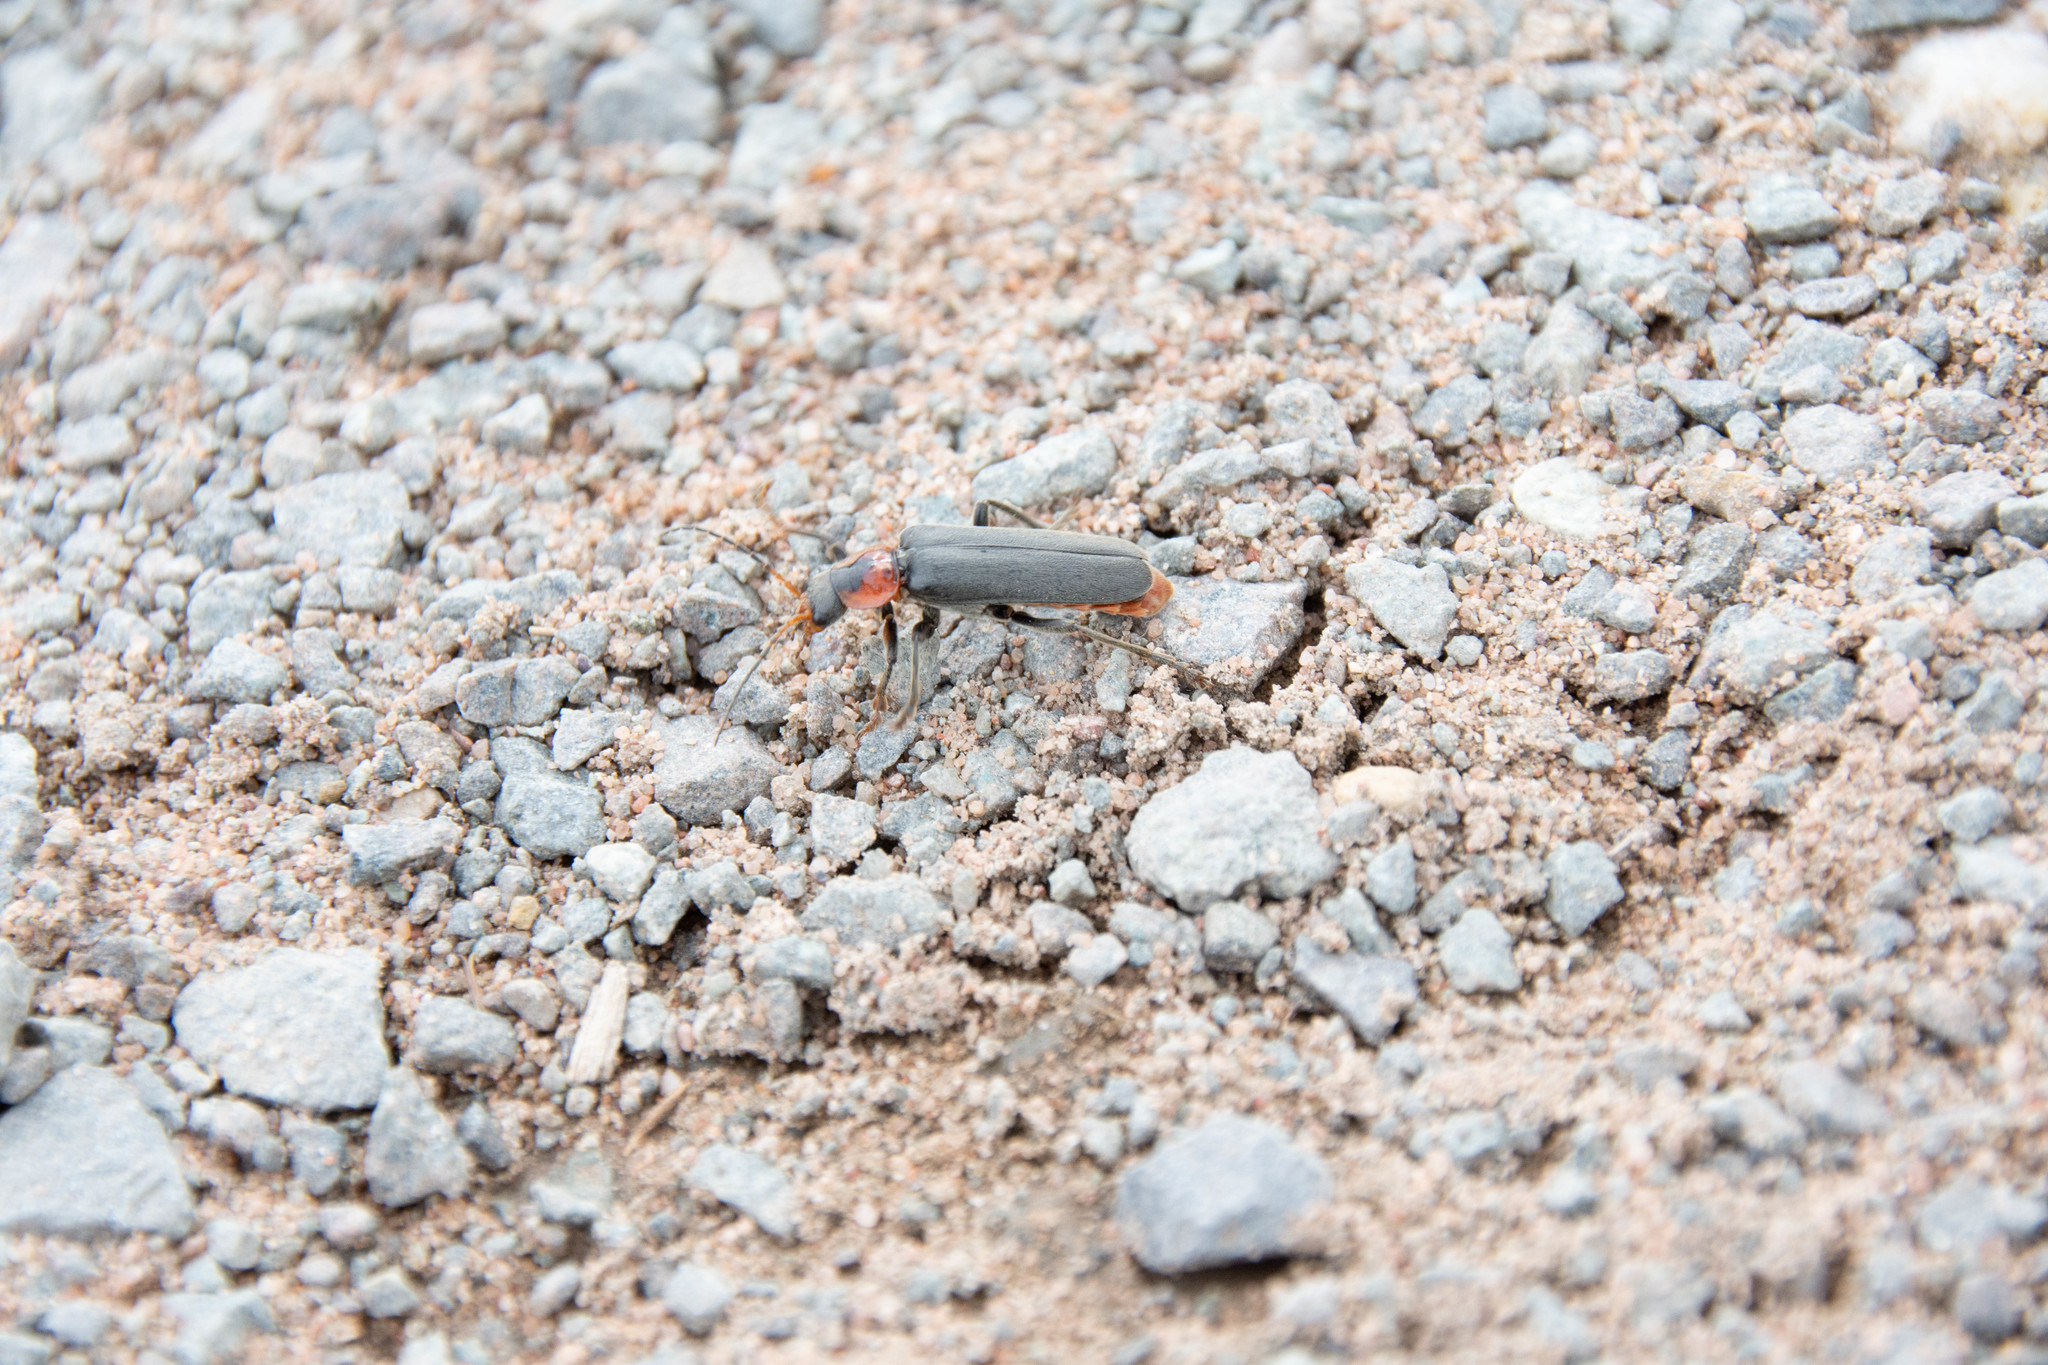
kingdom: Animalia
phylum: Arthropoda
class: Insecta
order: Coleoptera
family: Cantharidae
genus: Cantharis
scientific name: Cantharis fusca
